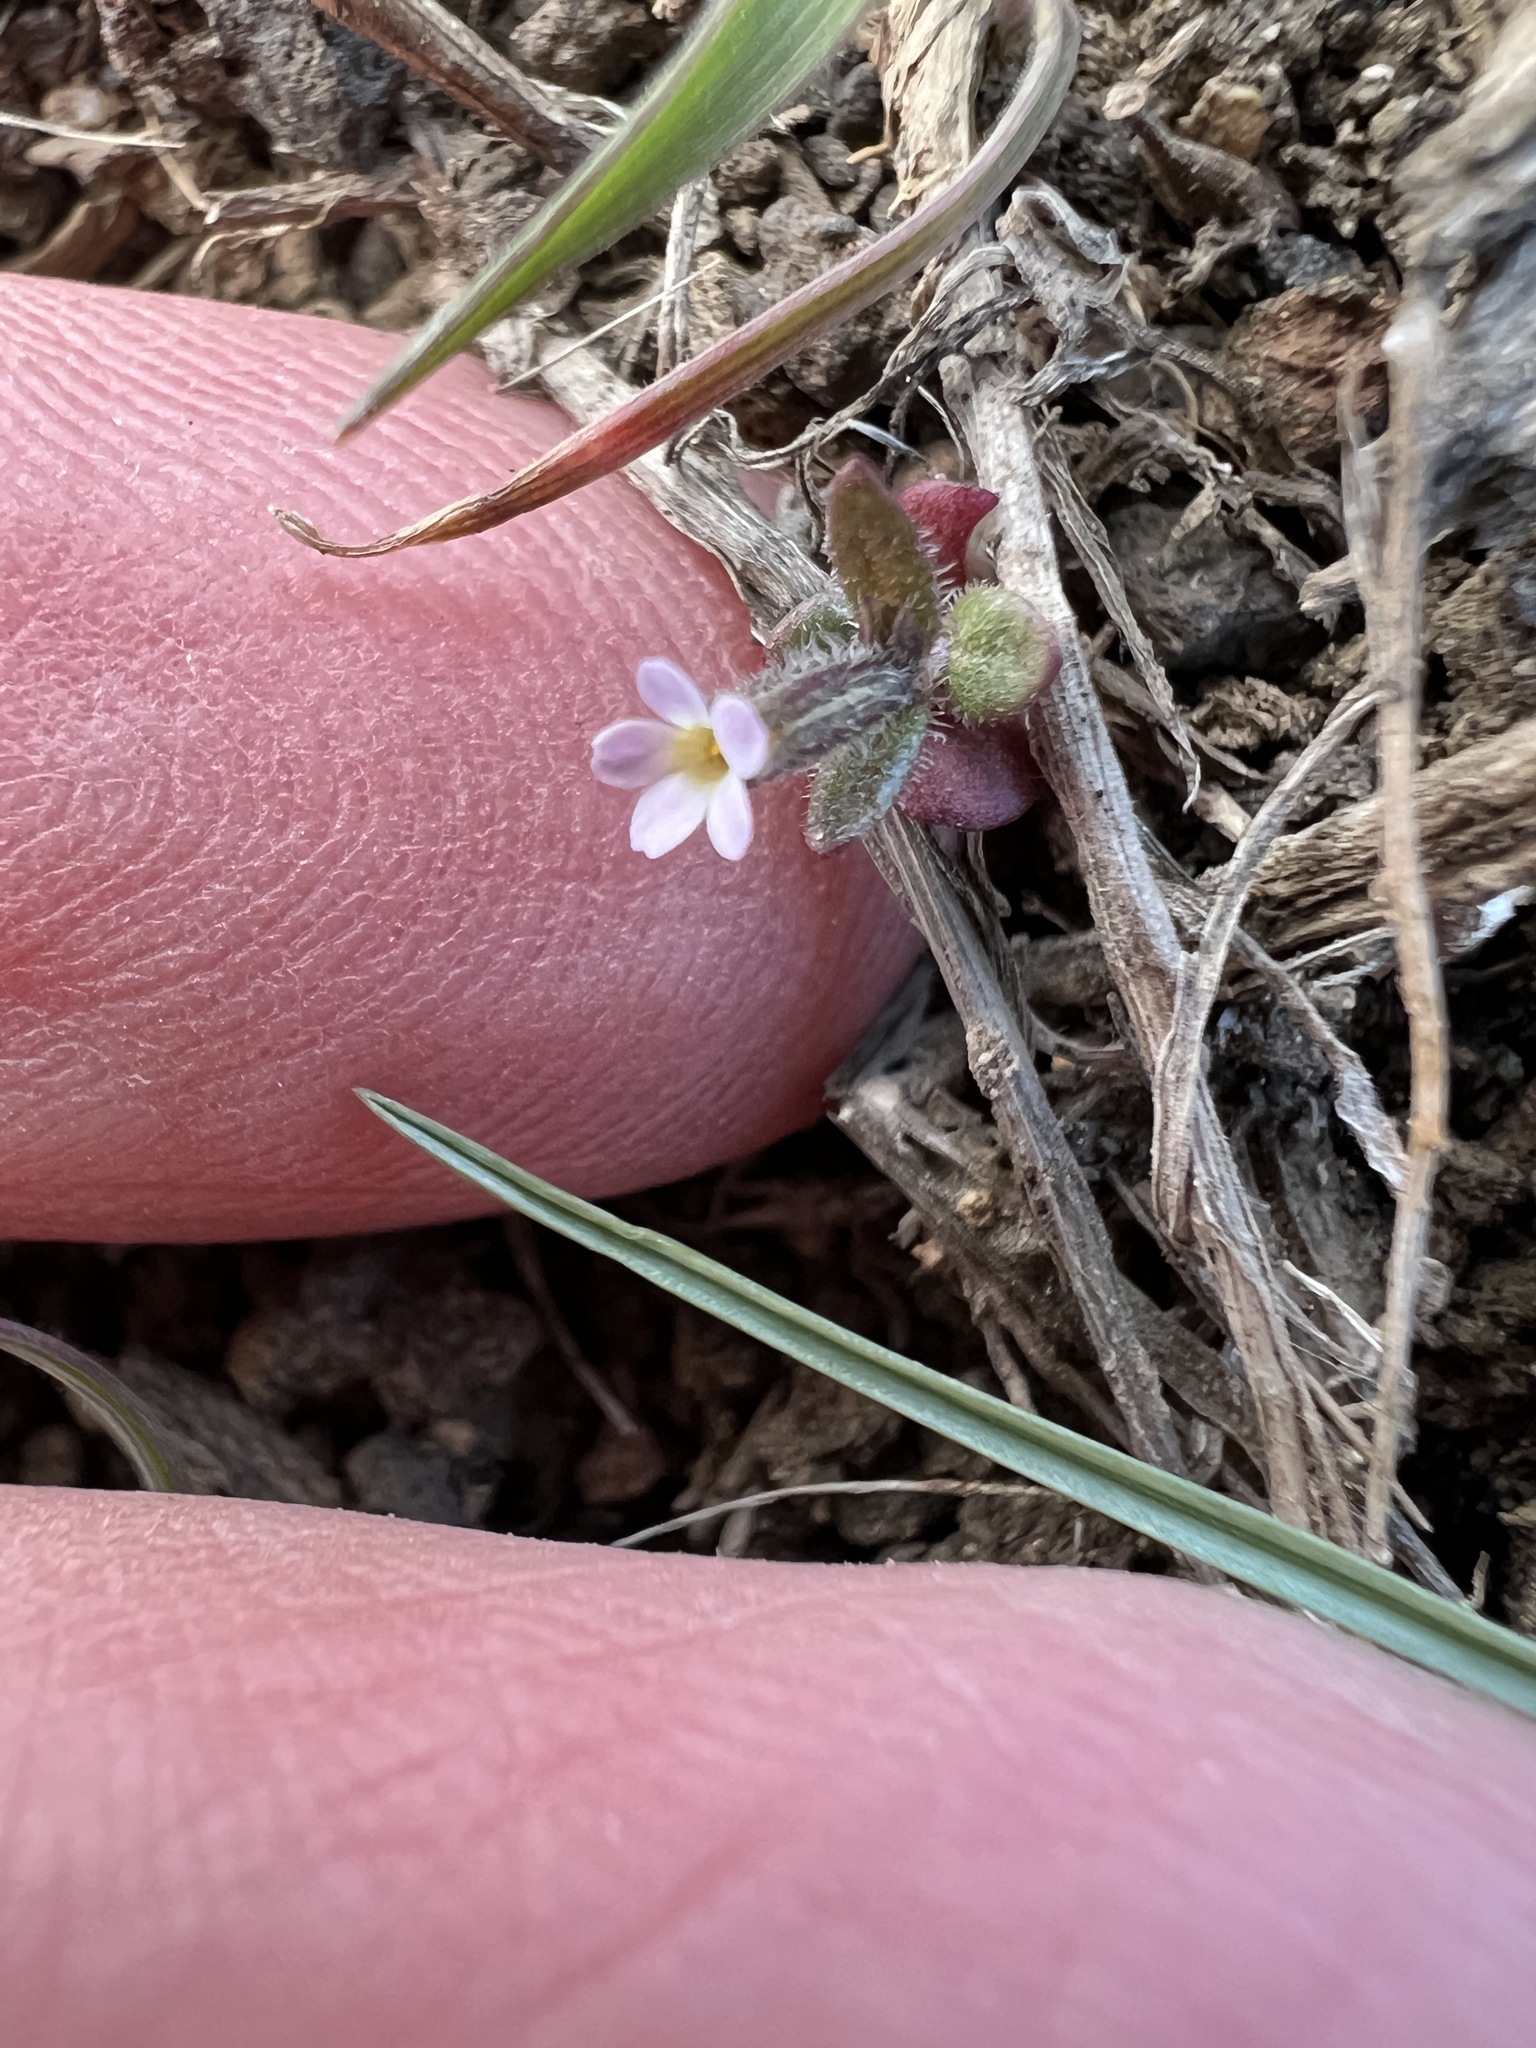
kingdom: Plantae
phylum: Tracheophyta
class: Magnoliopsida
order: Ericales
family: Polemoniaceae
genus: Phlox
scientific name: Phlox gracilis
